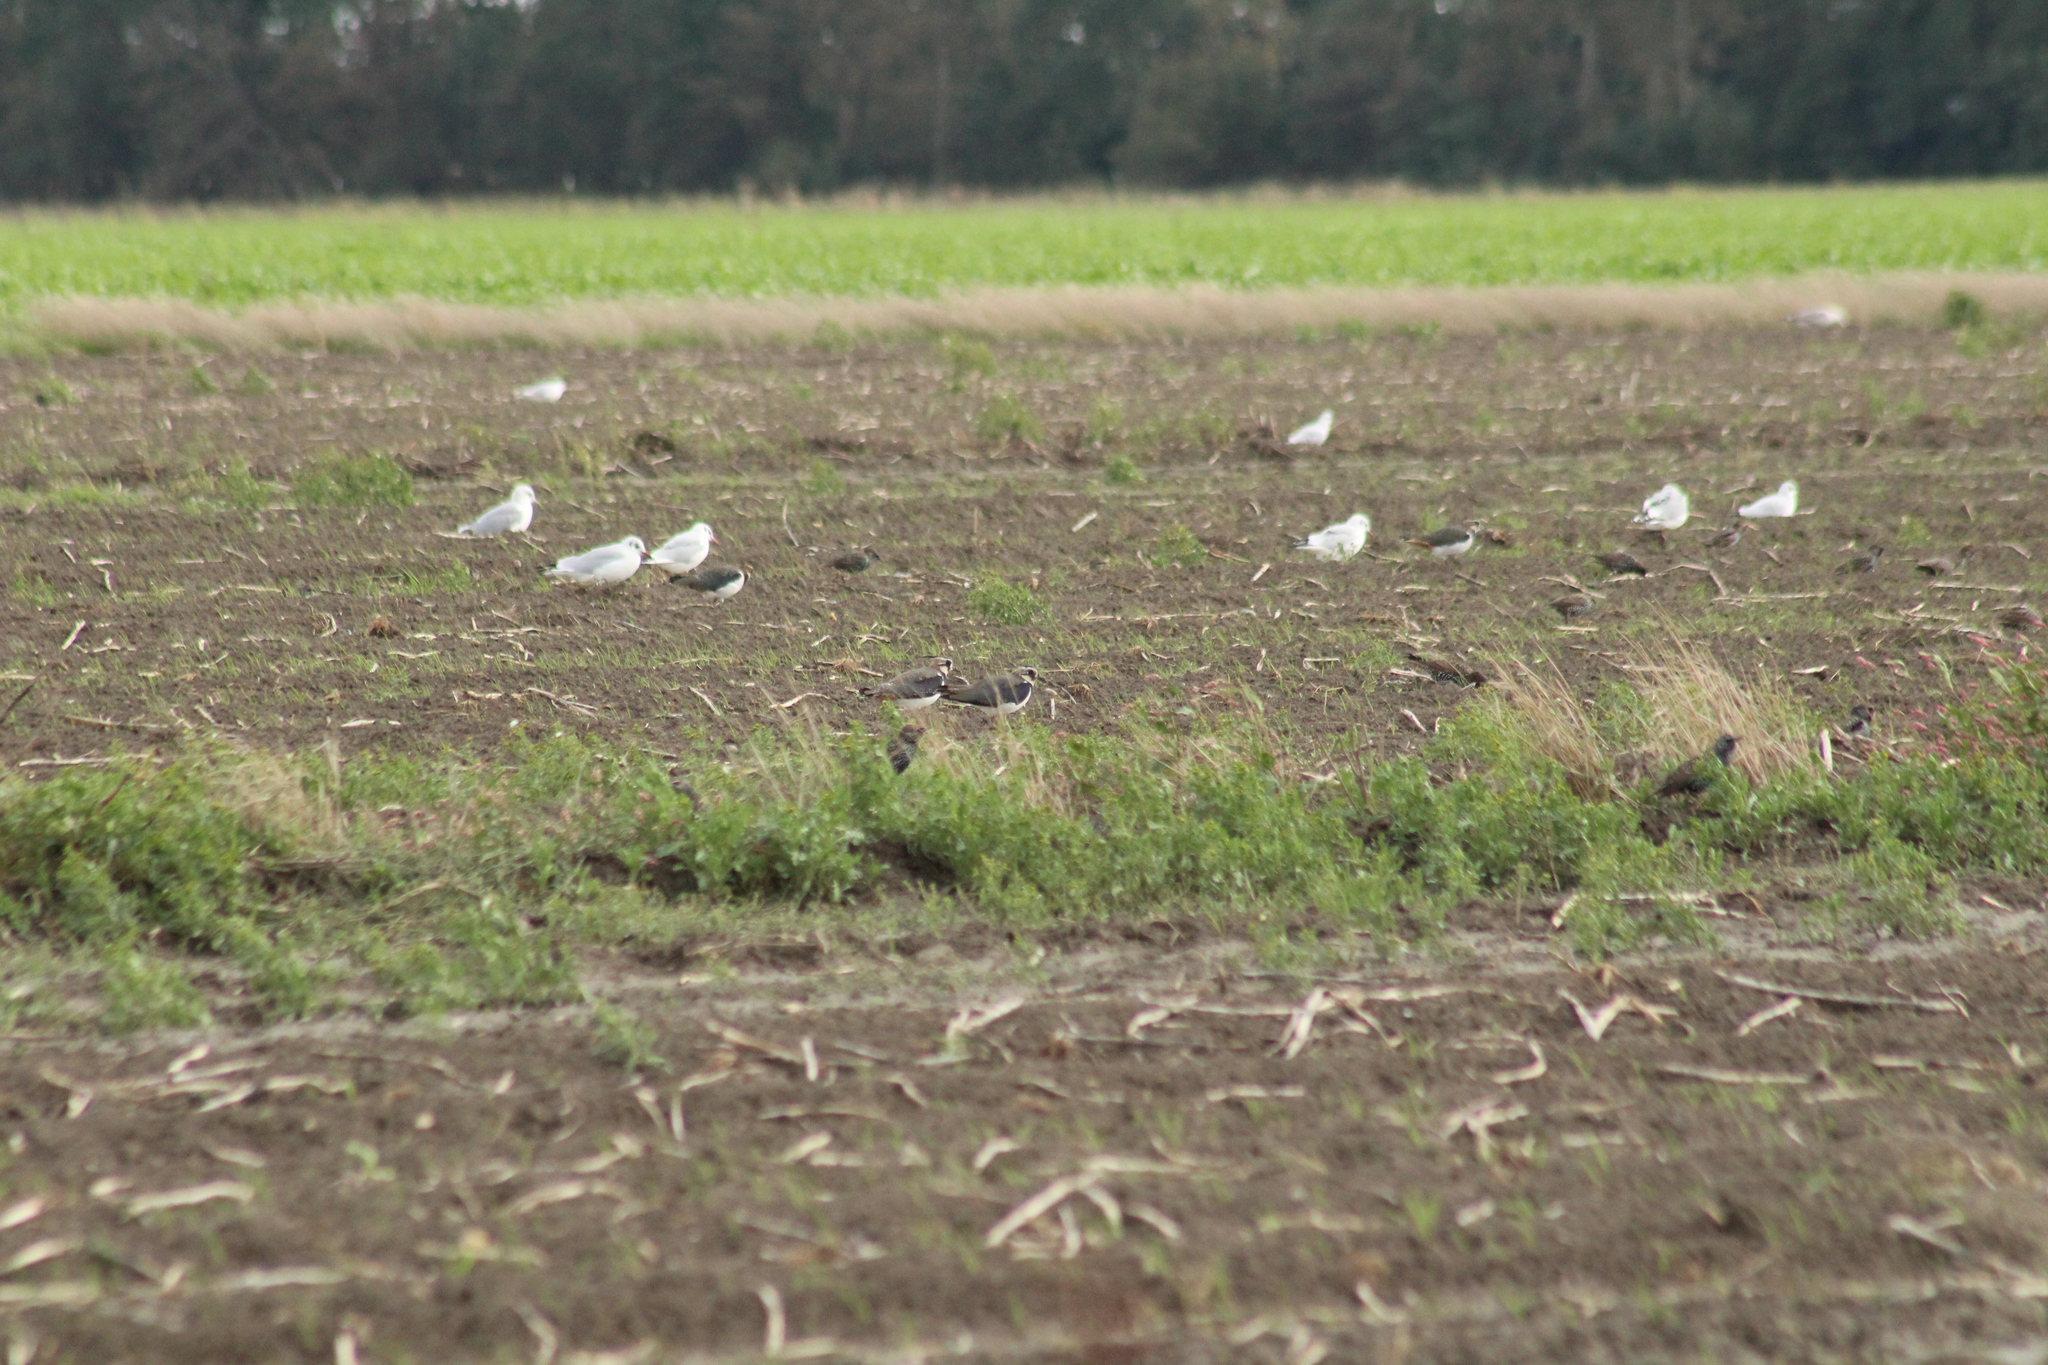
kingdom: Animalia
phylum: Chordata
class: Aves
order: Charadriiformes
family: Charadriidae
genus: Vanellus
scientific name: Vanellus vanellus
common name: Northern lapwing
